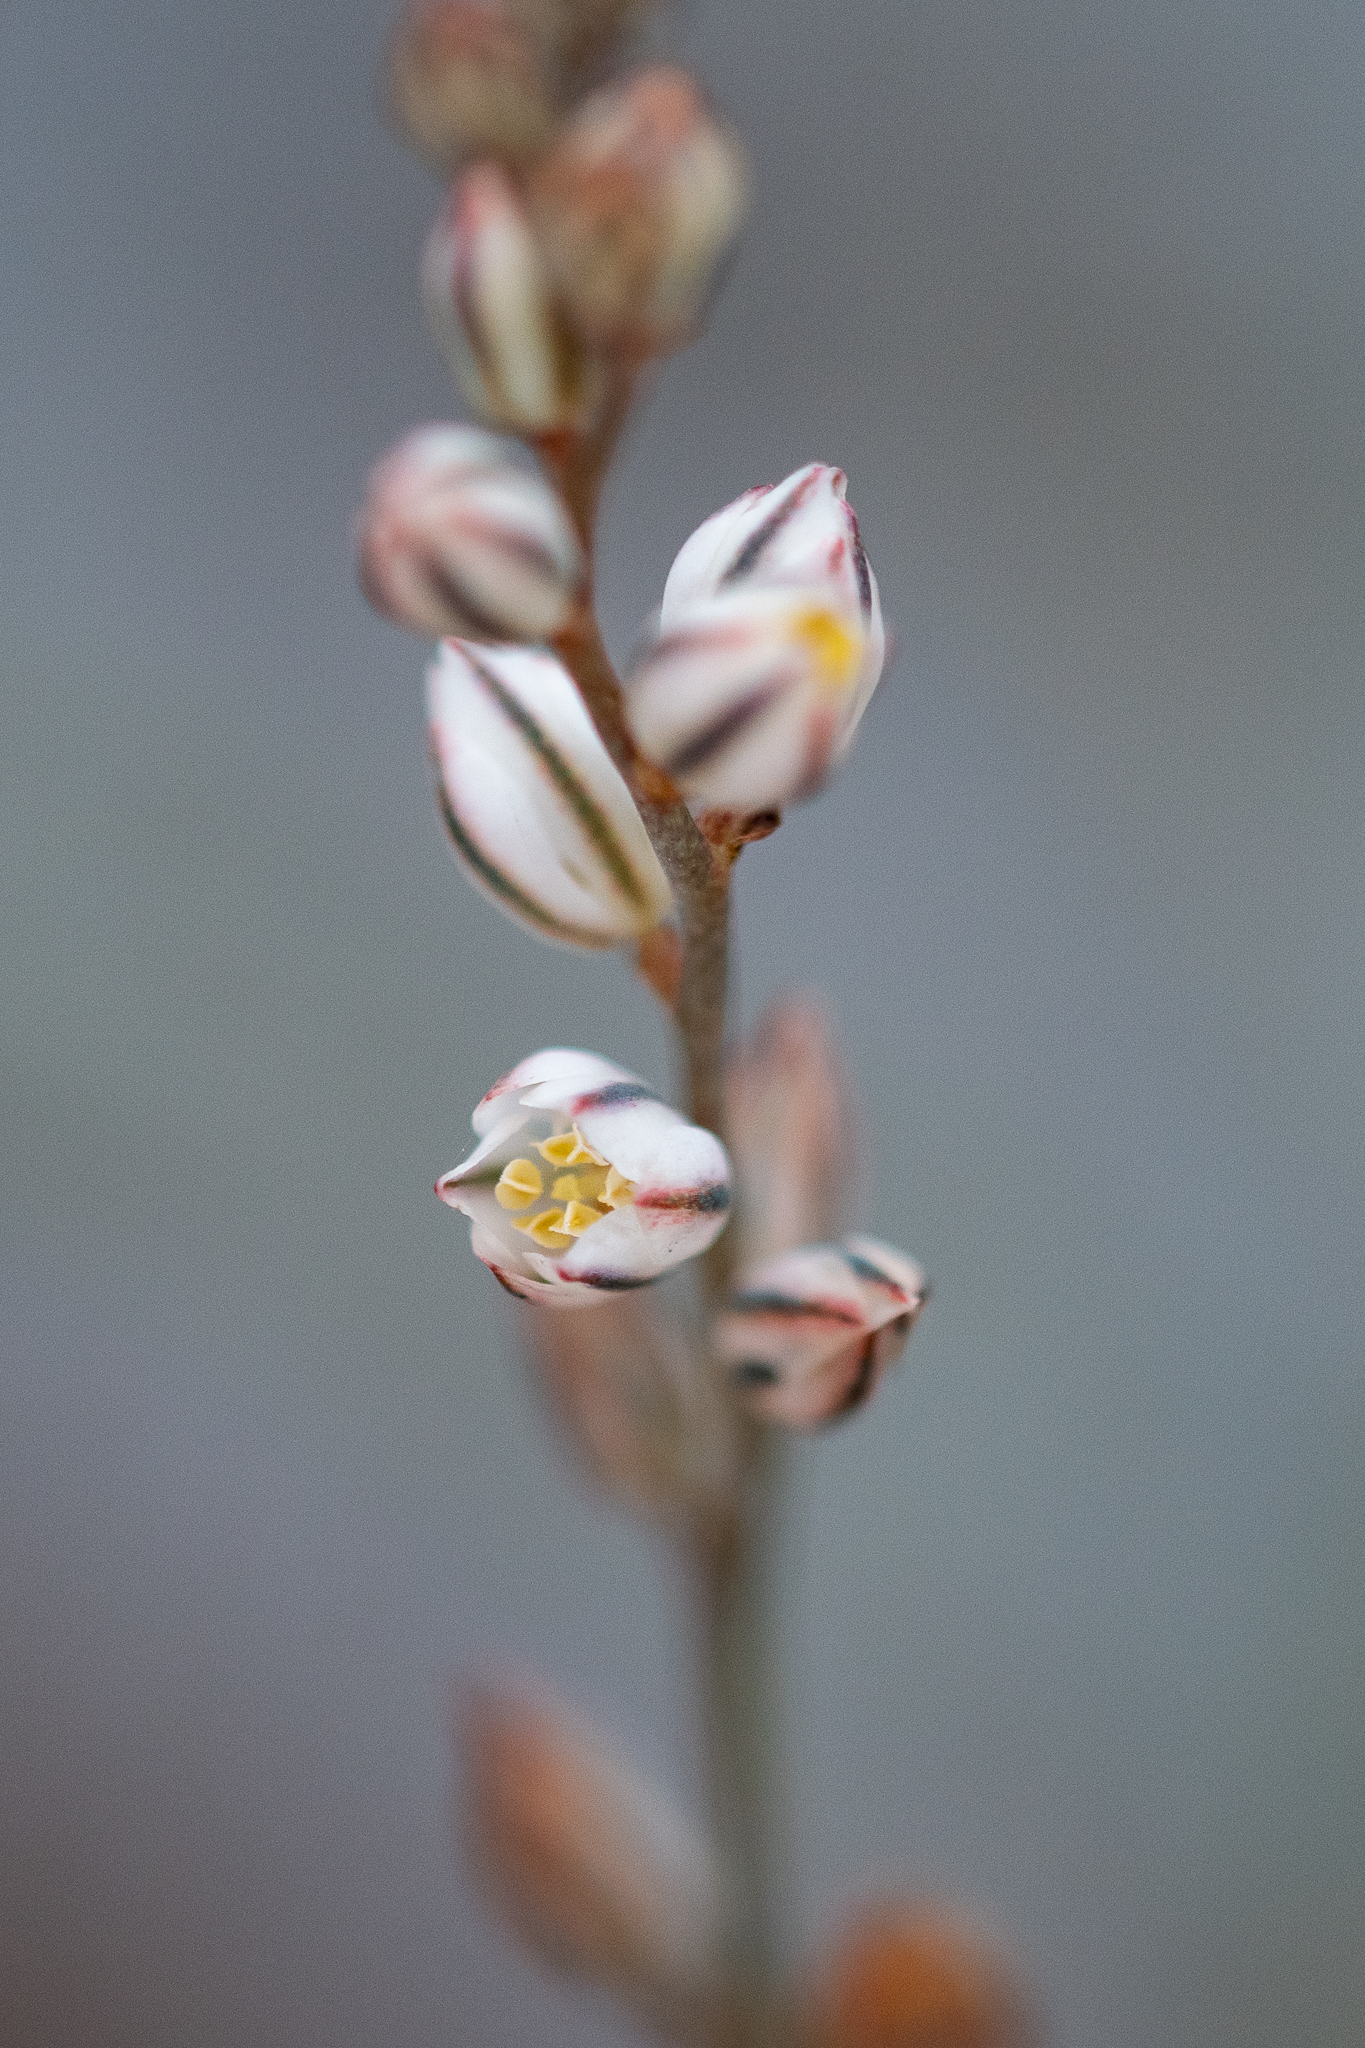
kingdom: Plantae
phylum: Tracheophyta
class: Liliopsida
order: Asparagales
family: Asparagaceae
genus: Eriospermum
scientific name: Eriospermum cernuum
